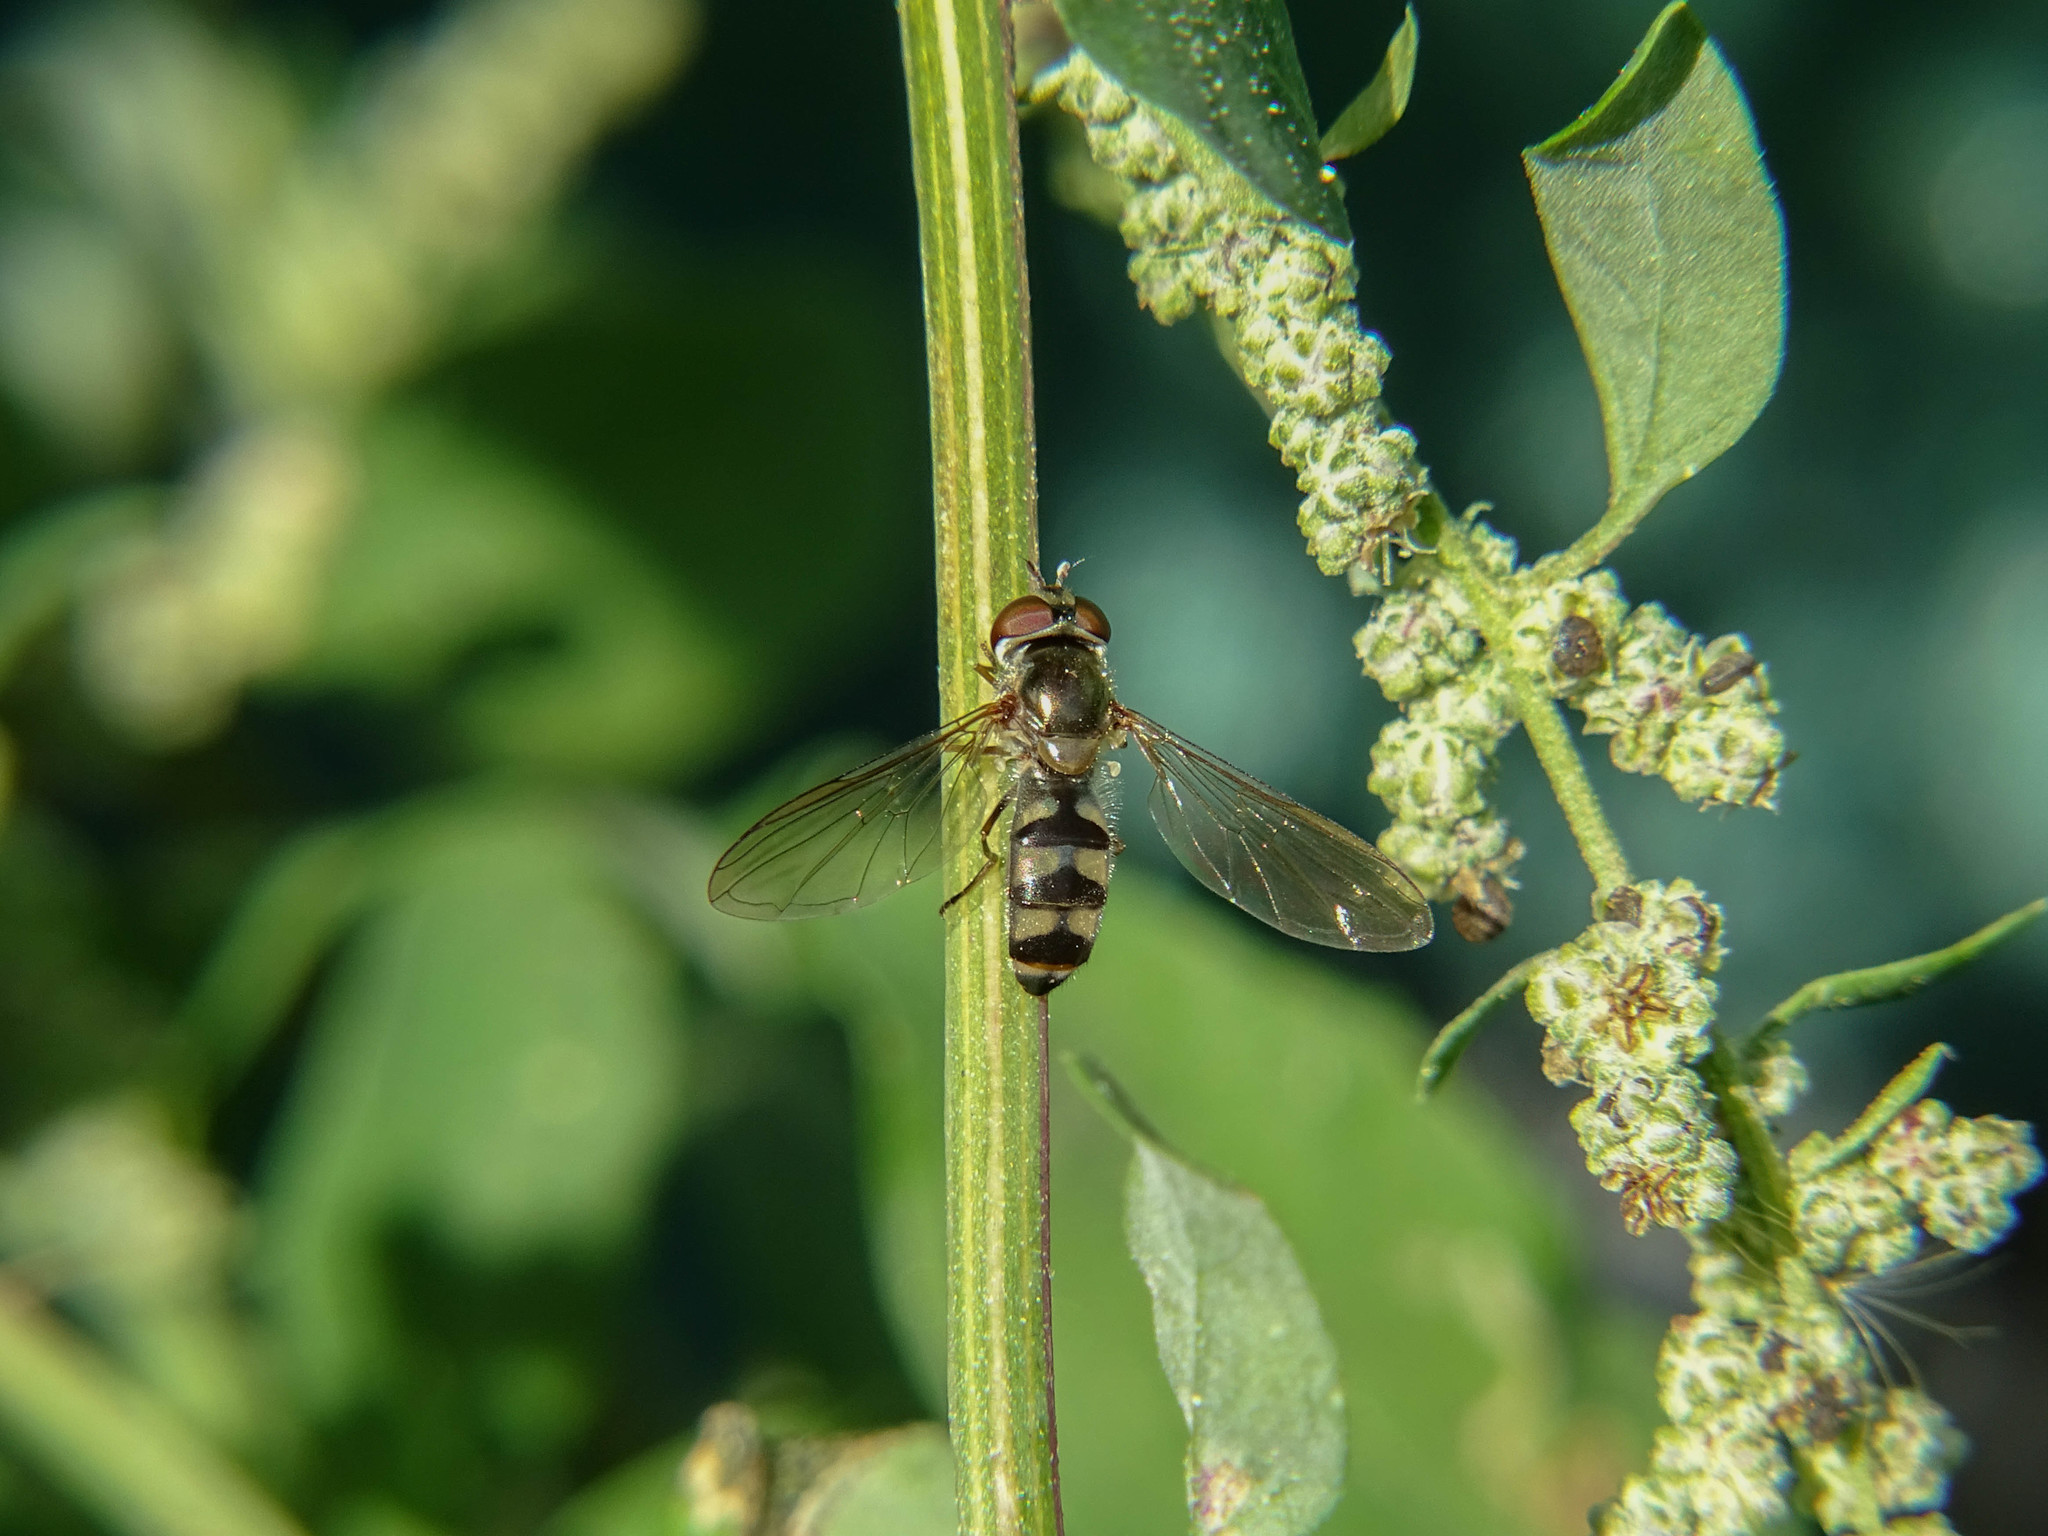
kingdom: Animalia
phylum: Arthropoda
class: Insecta
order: Diptera
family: Syrphidae
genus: Meliscaeva
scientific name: Meliscaeva auricollis
